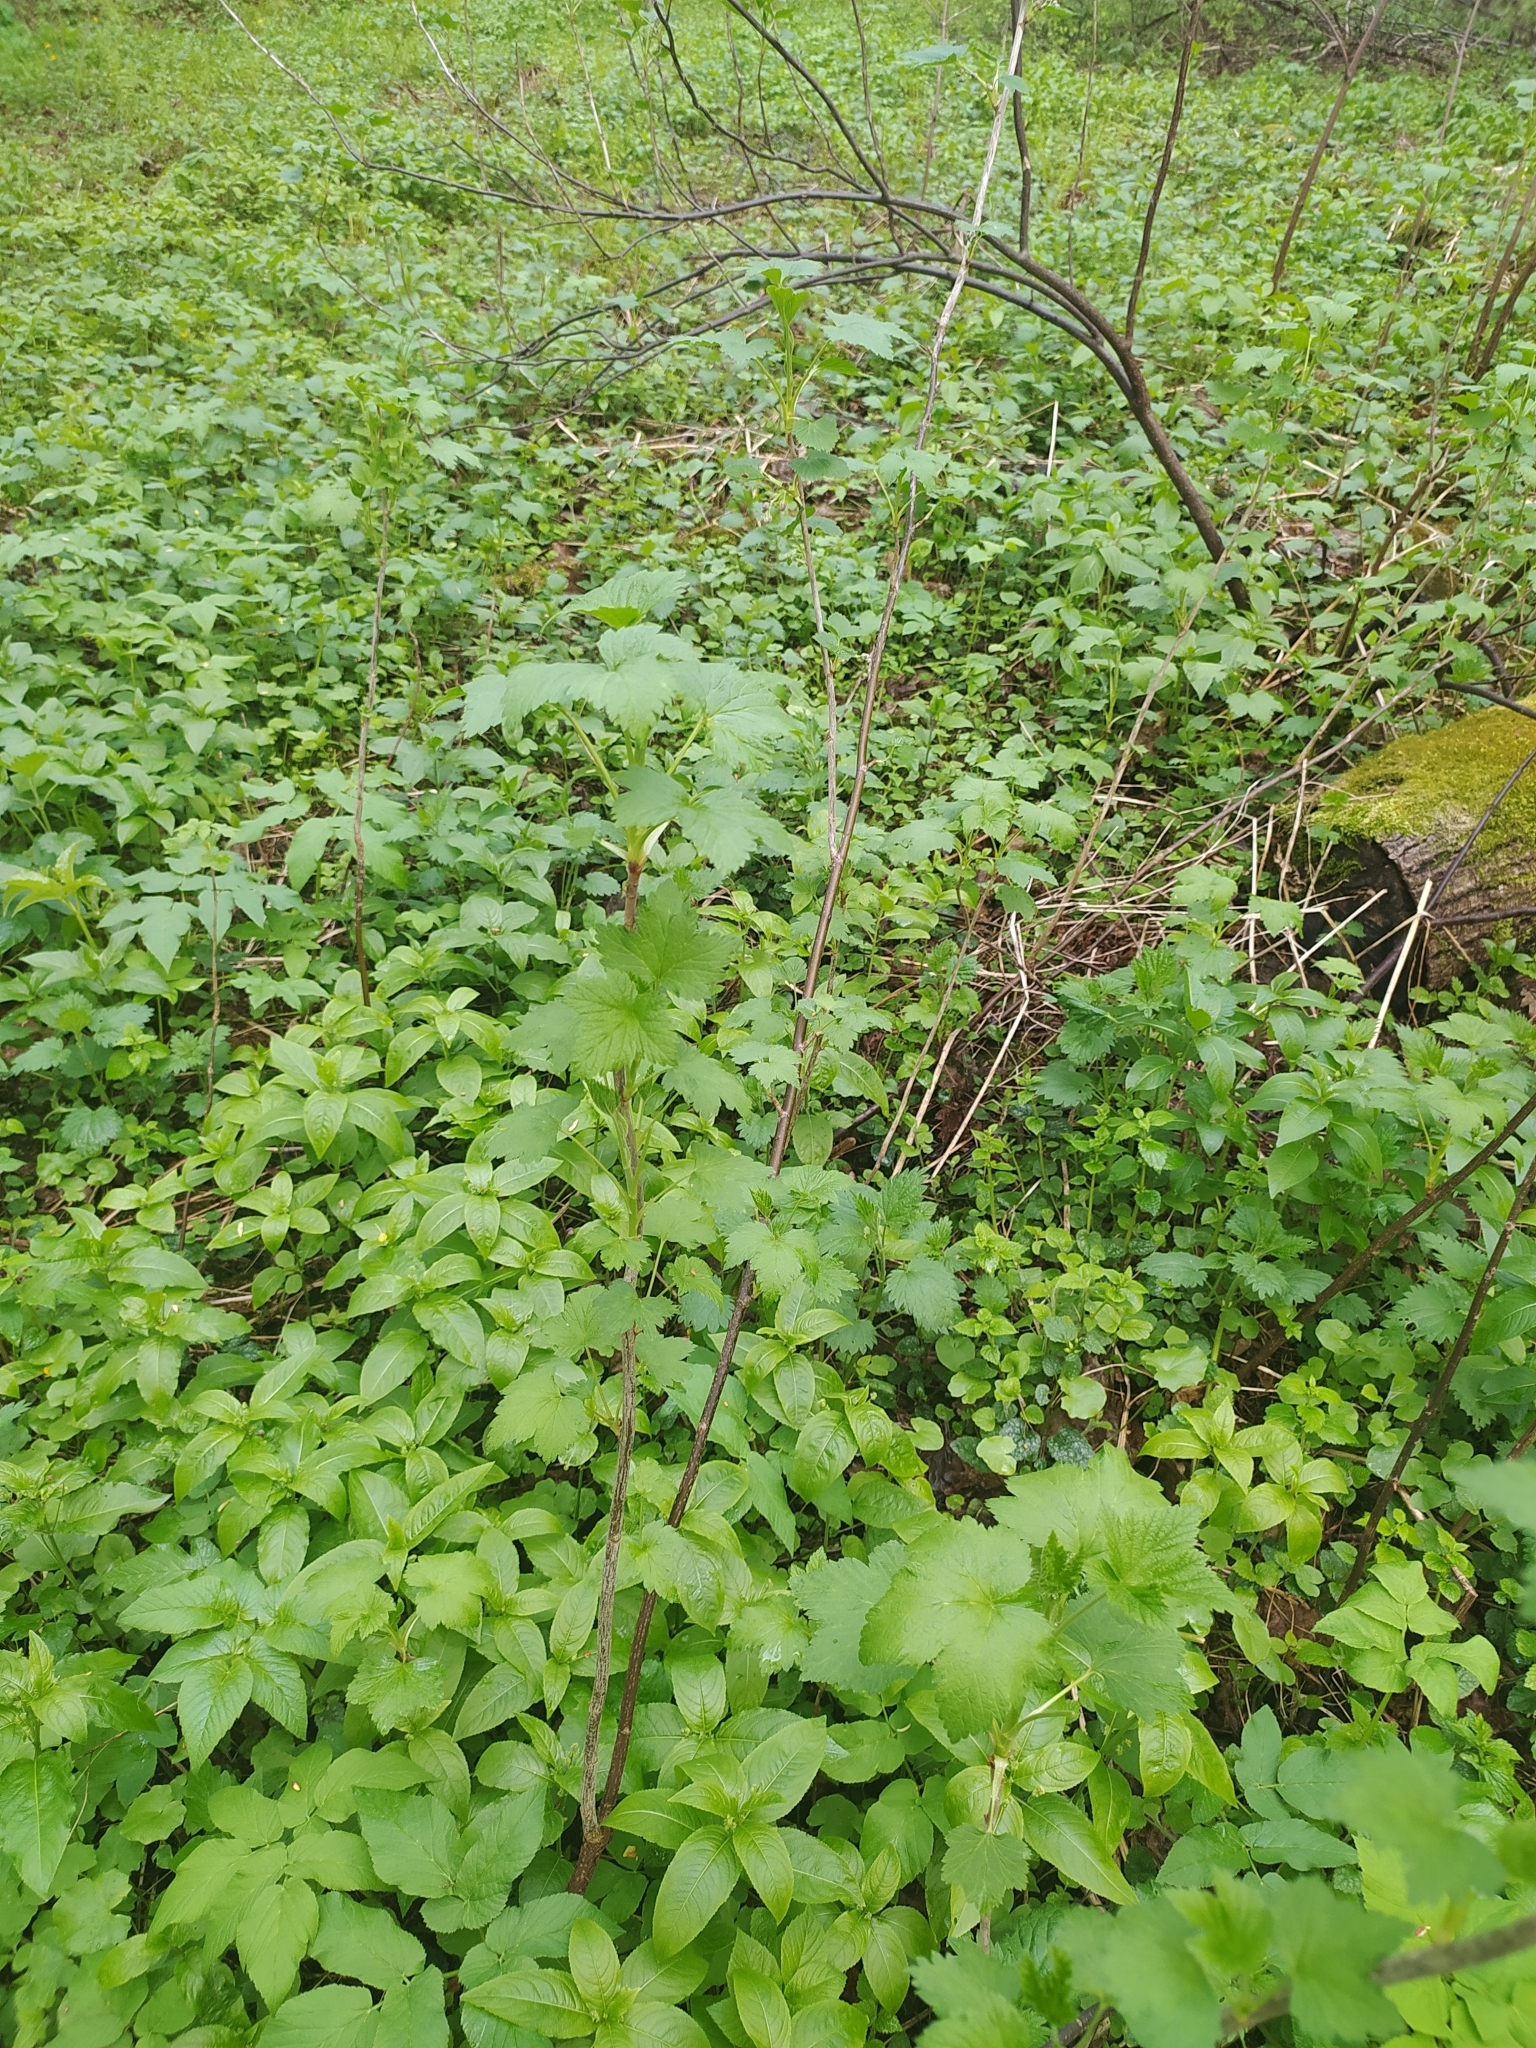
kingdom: Plantae
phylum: Tracheophyta
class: Magnoliopsida
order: Saxifragales
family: Grossulariaceae
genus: Ribes
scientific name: Ribes nigrum
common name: Black currant
